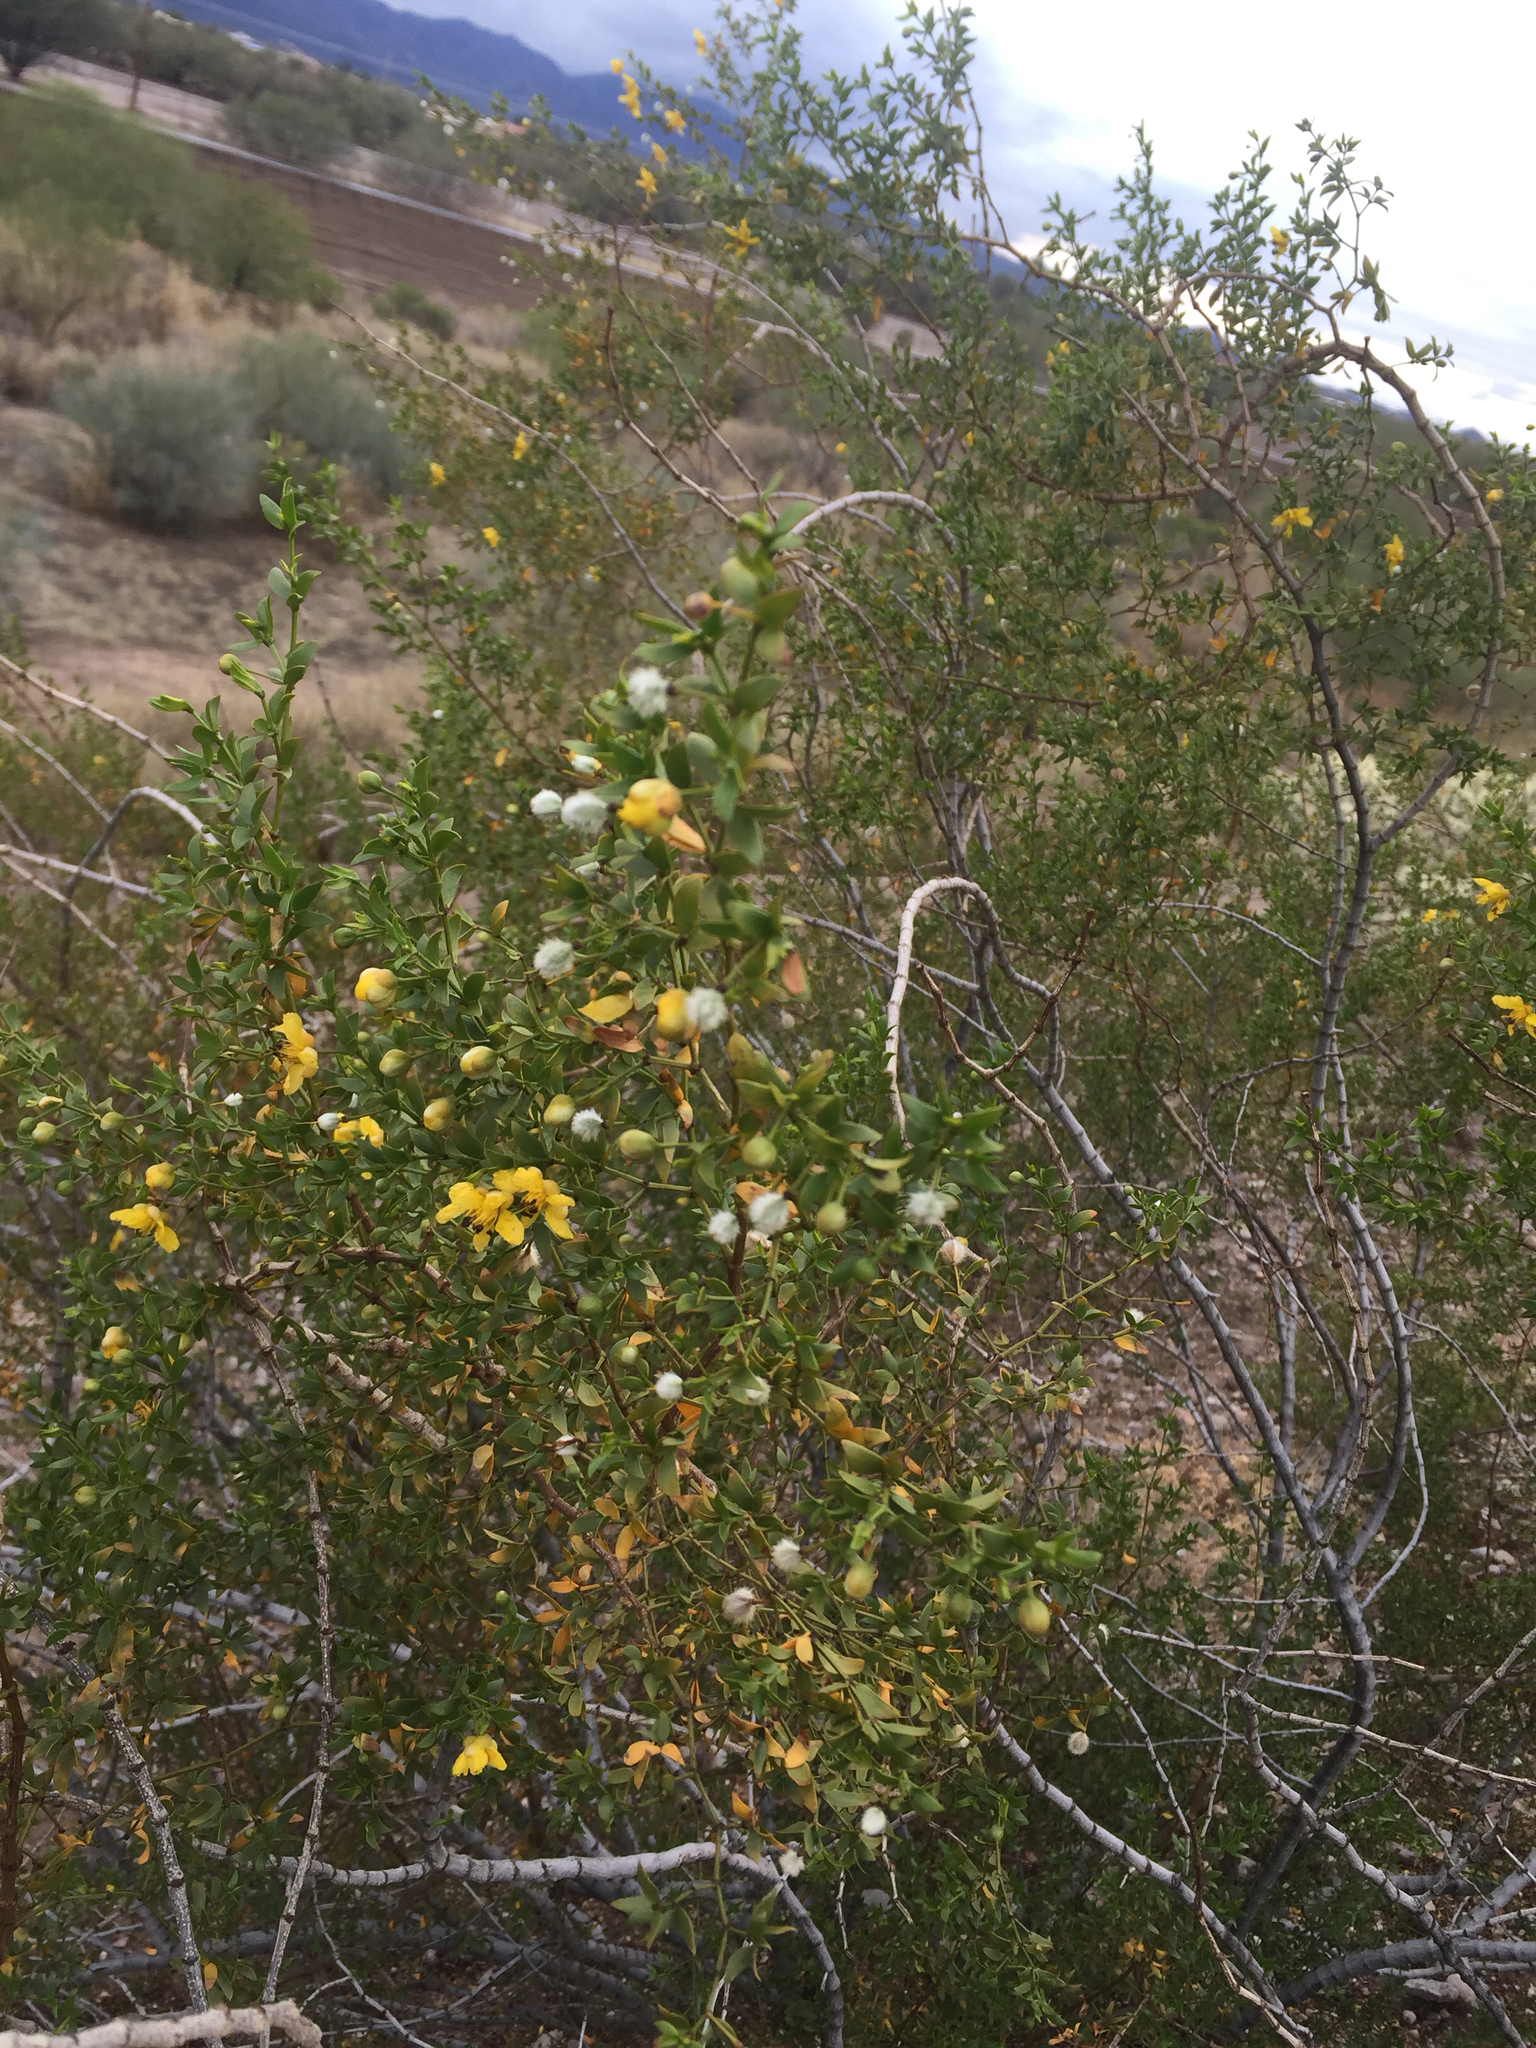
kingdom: Plantae
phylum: Tracheophyta
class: Magnoliopsida
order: Zygophyllales
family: Zygophyllaceae
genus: Larrea
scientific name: Larrea tridentata
